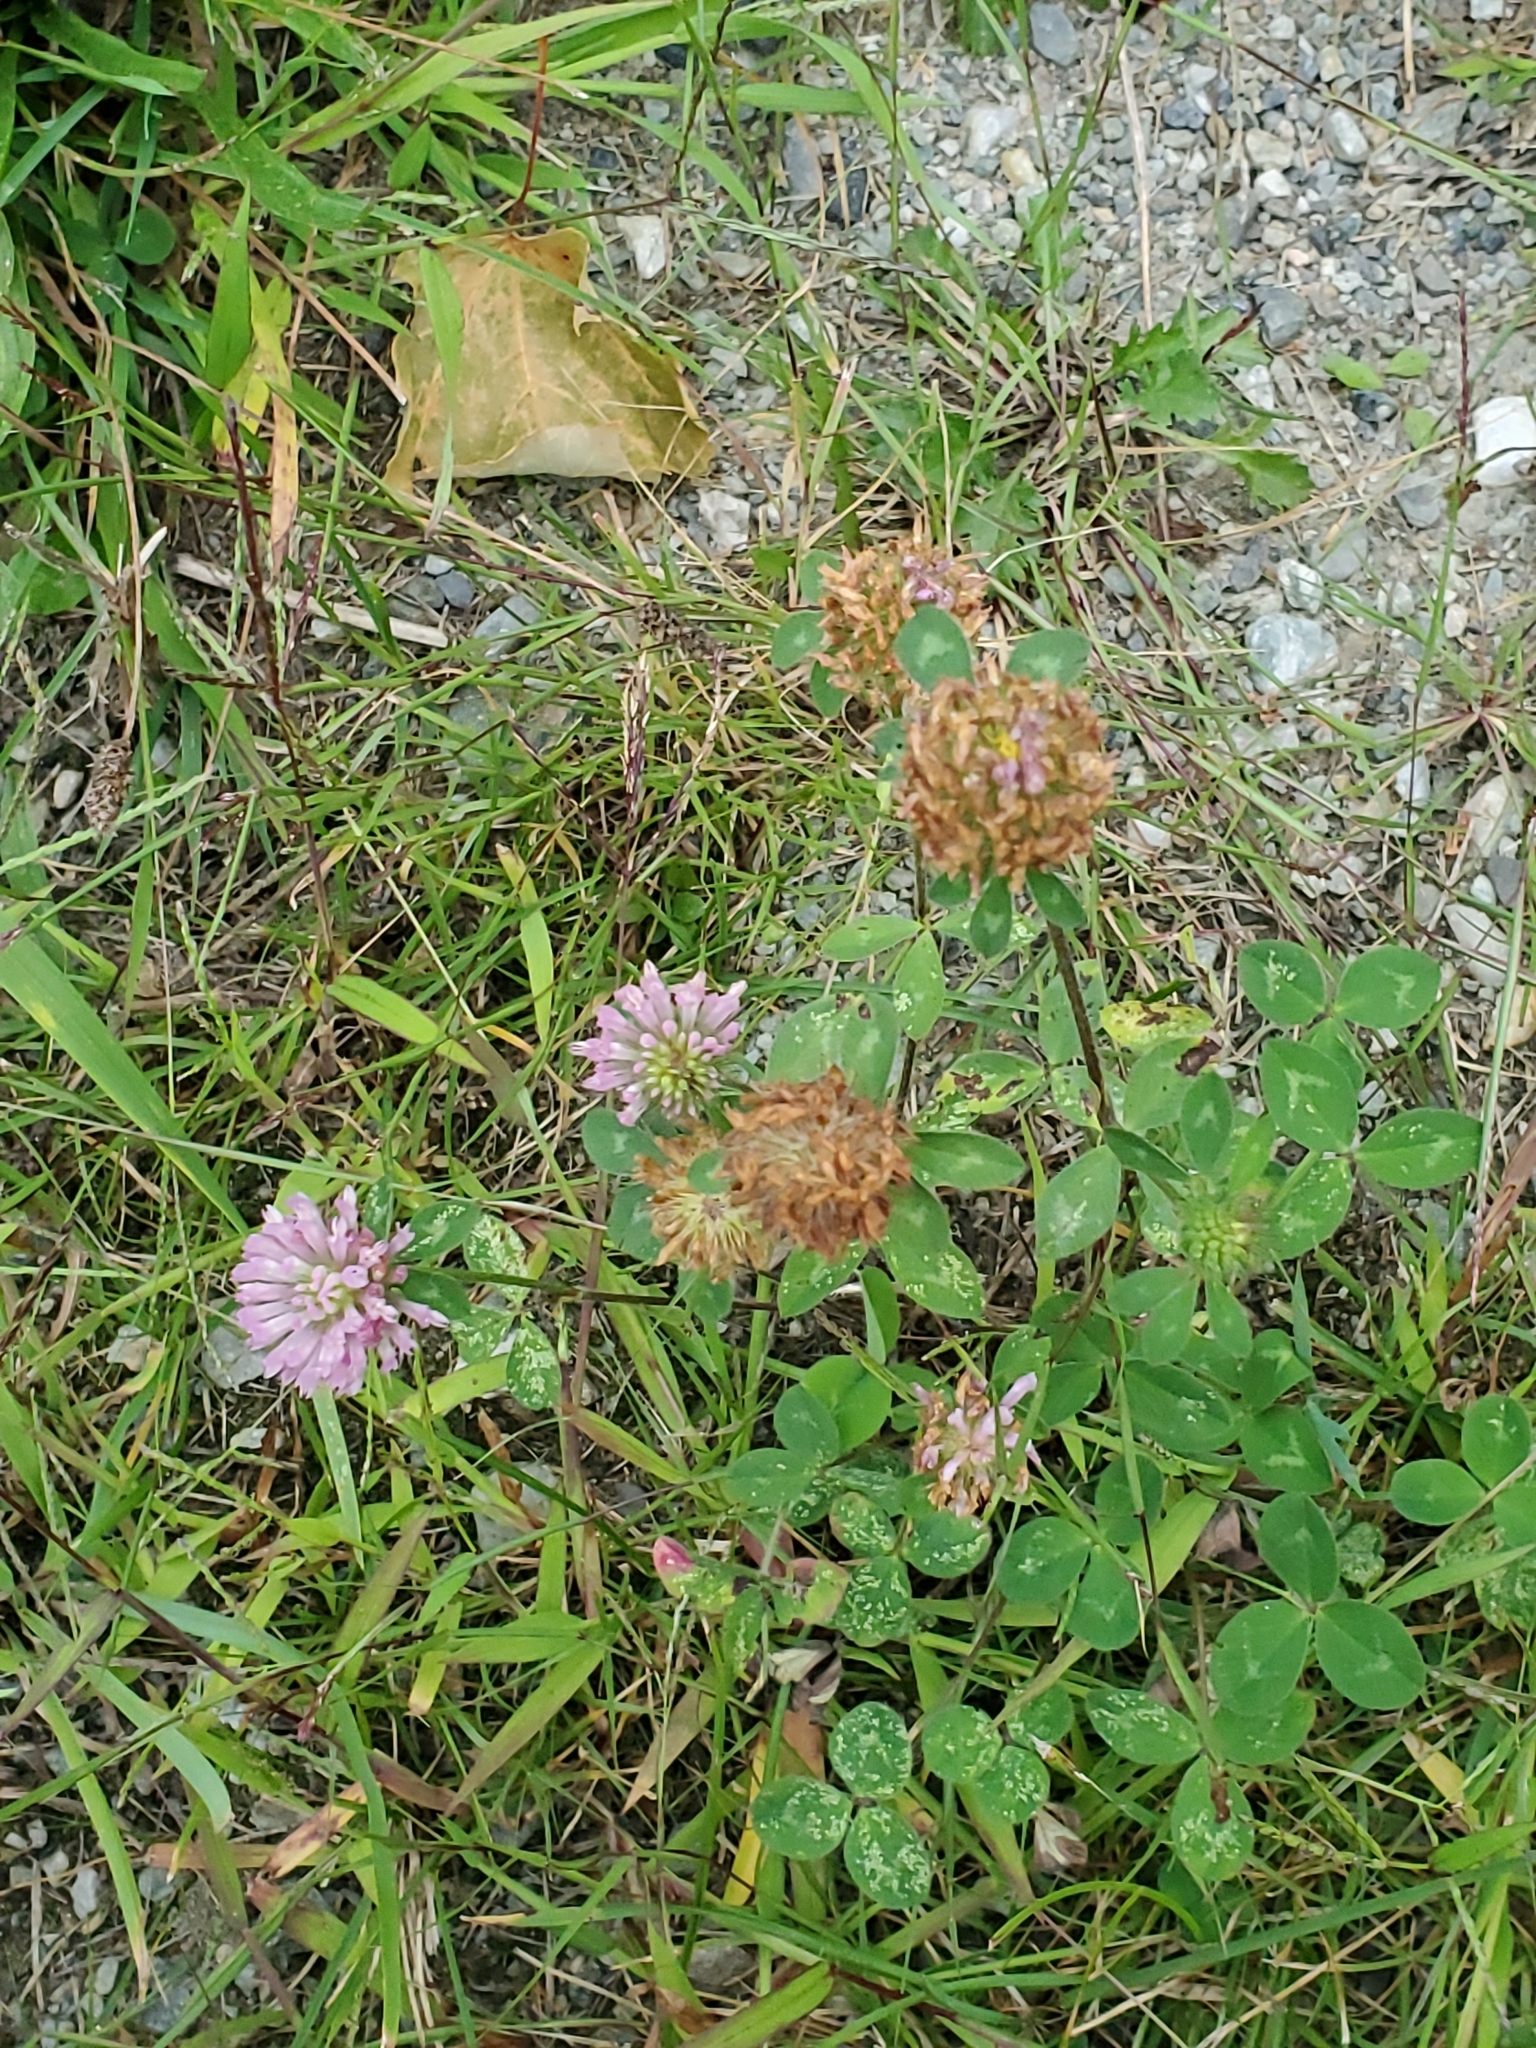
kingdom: Plantae
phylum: Tracheophyta
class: Magnoliopsida
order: Fabales
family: Fabaceae
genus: Trifolium
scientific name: Trifolium pratense
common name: Red clover
